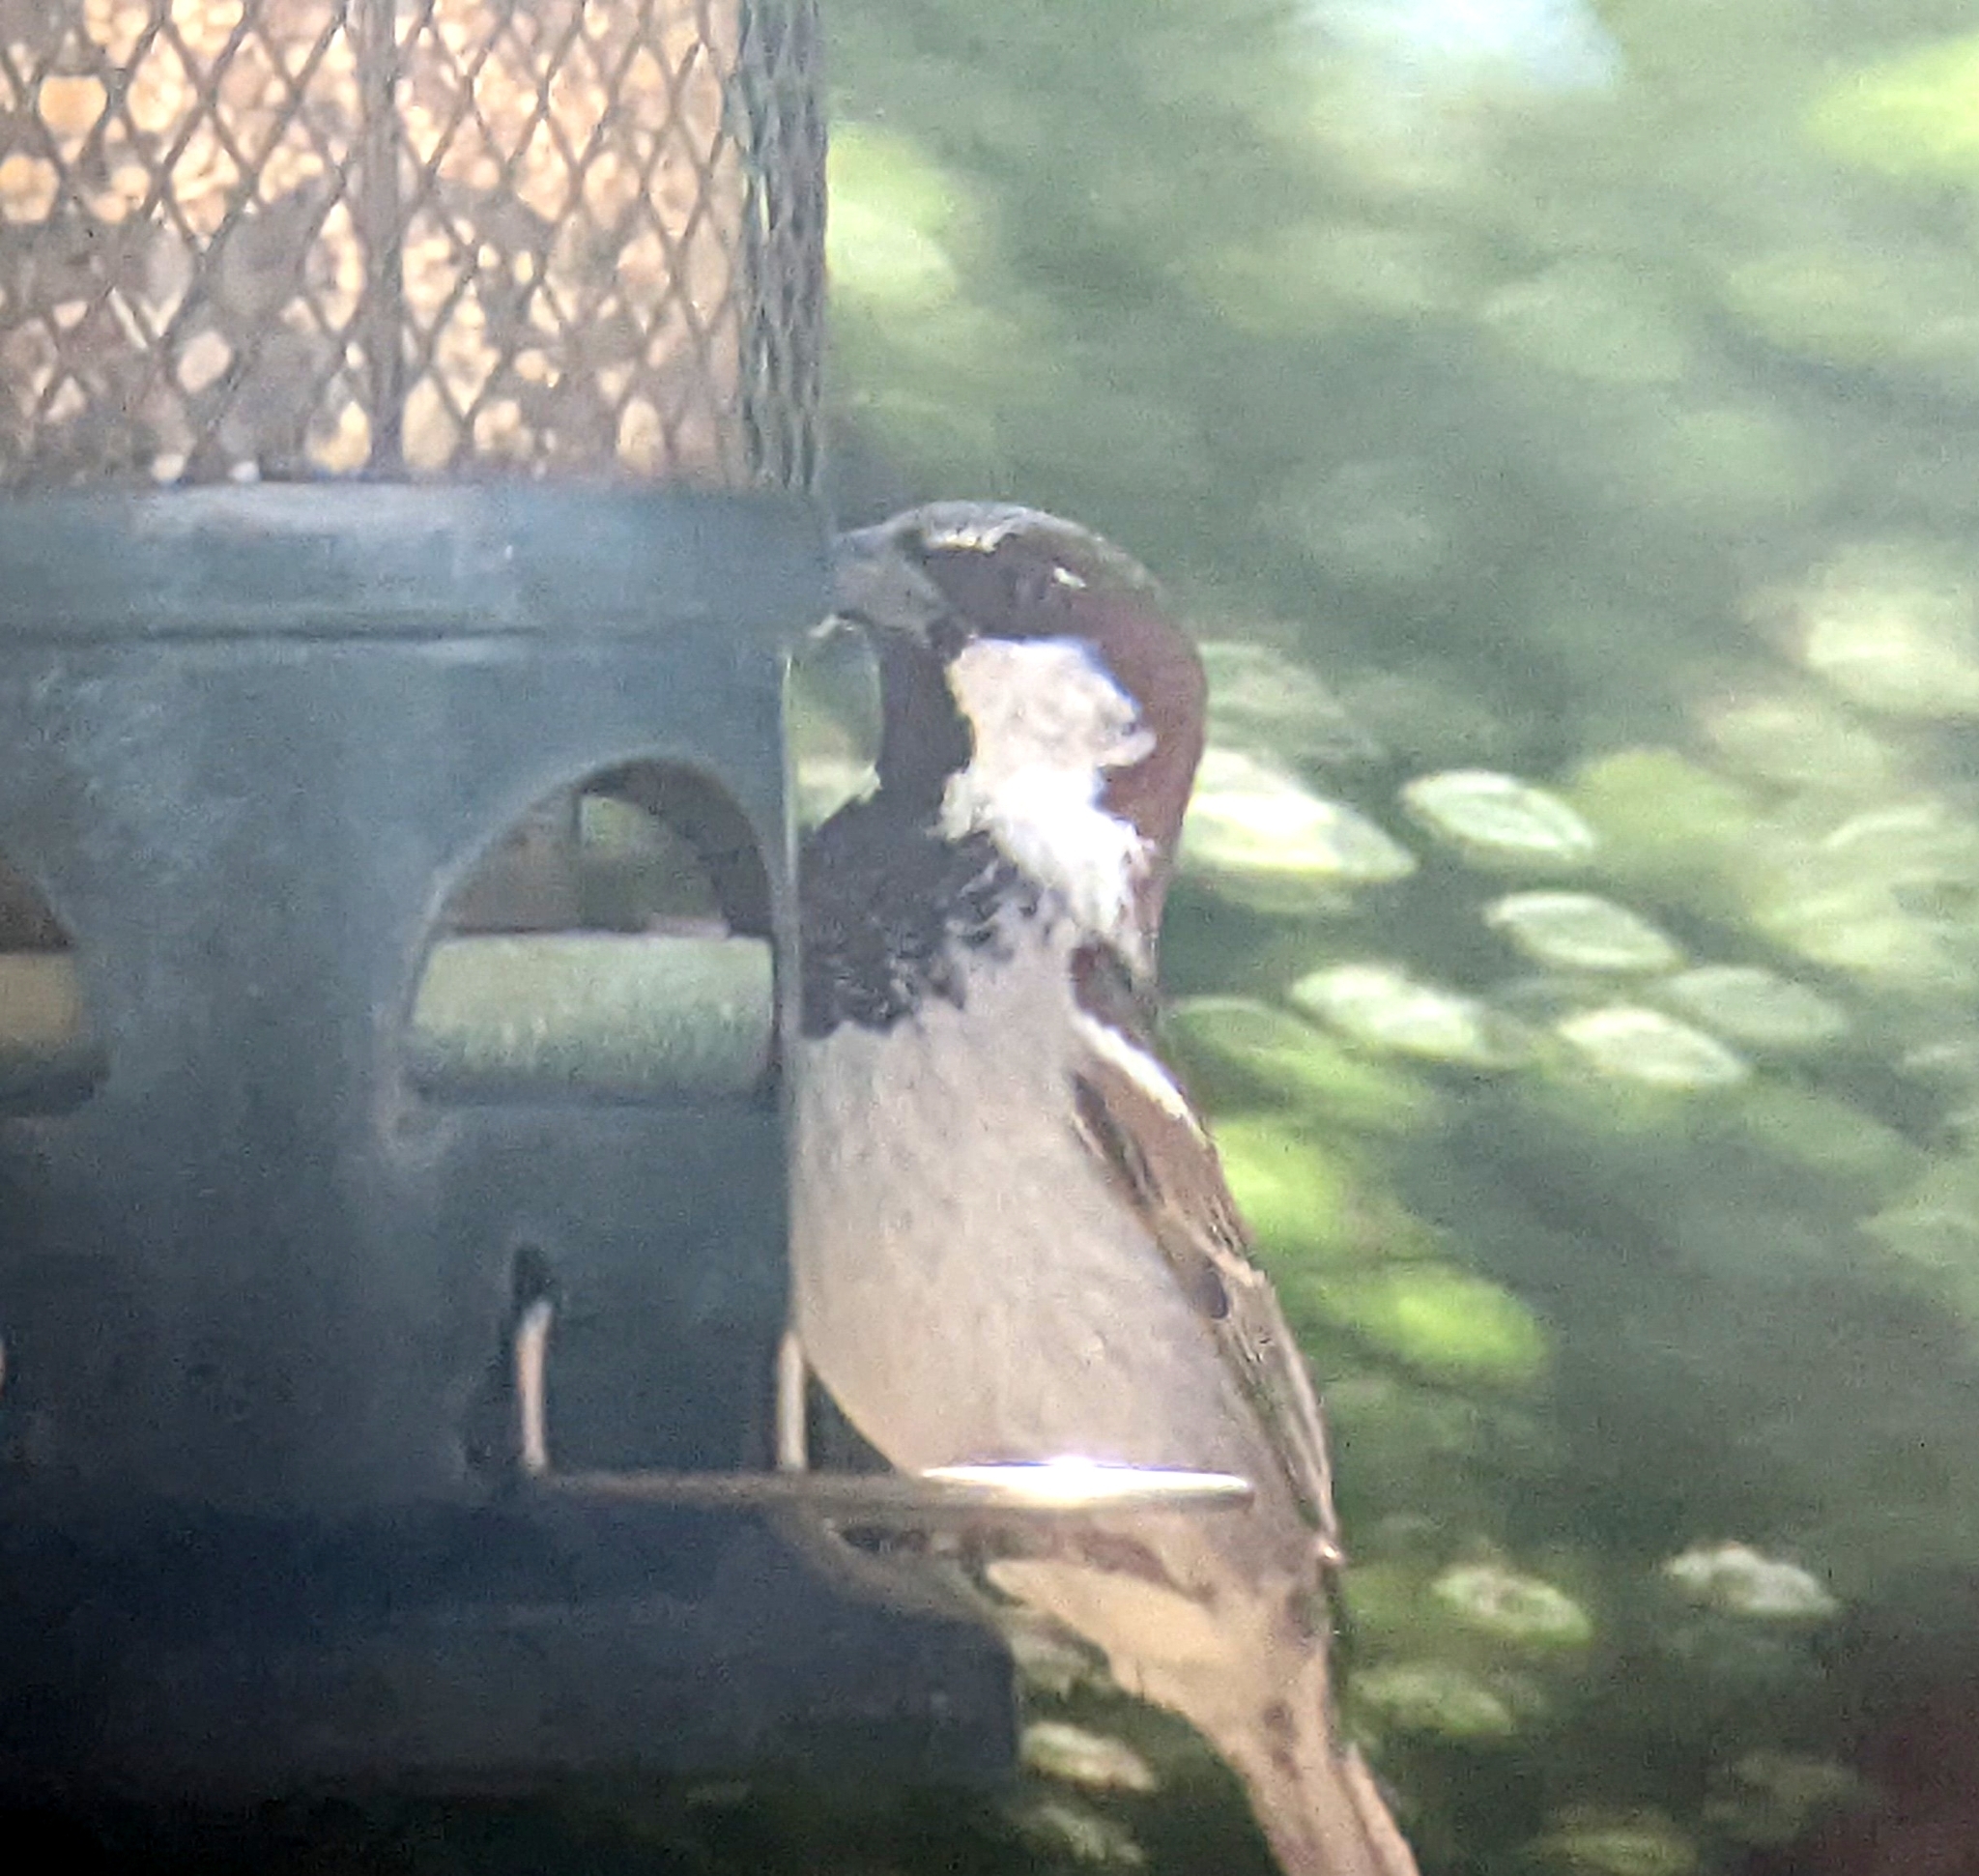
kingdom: Animalia
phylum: Chordata
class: Aves
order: Passeriformes
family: Passeridae
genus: Passer
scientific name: Passer domesticus
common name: House sparrow
